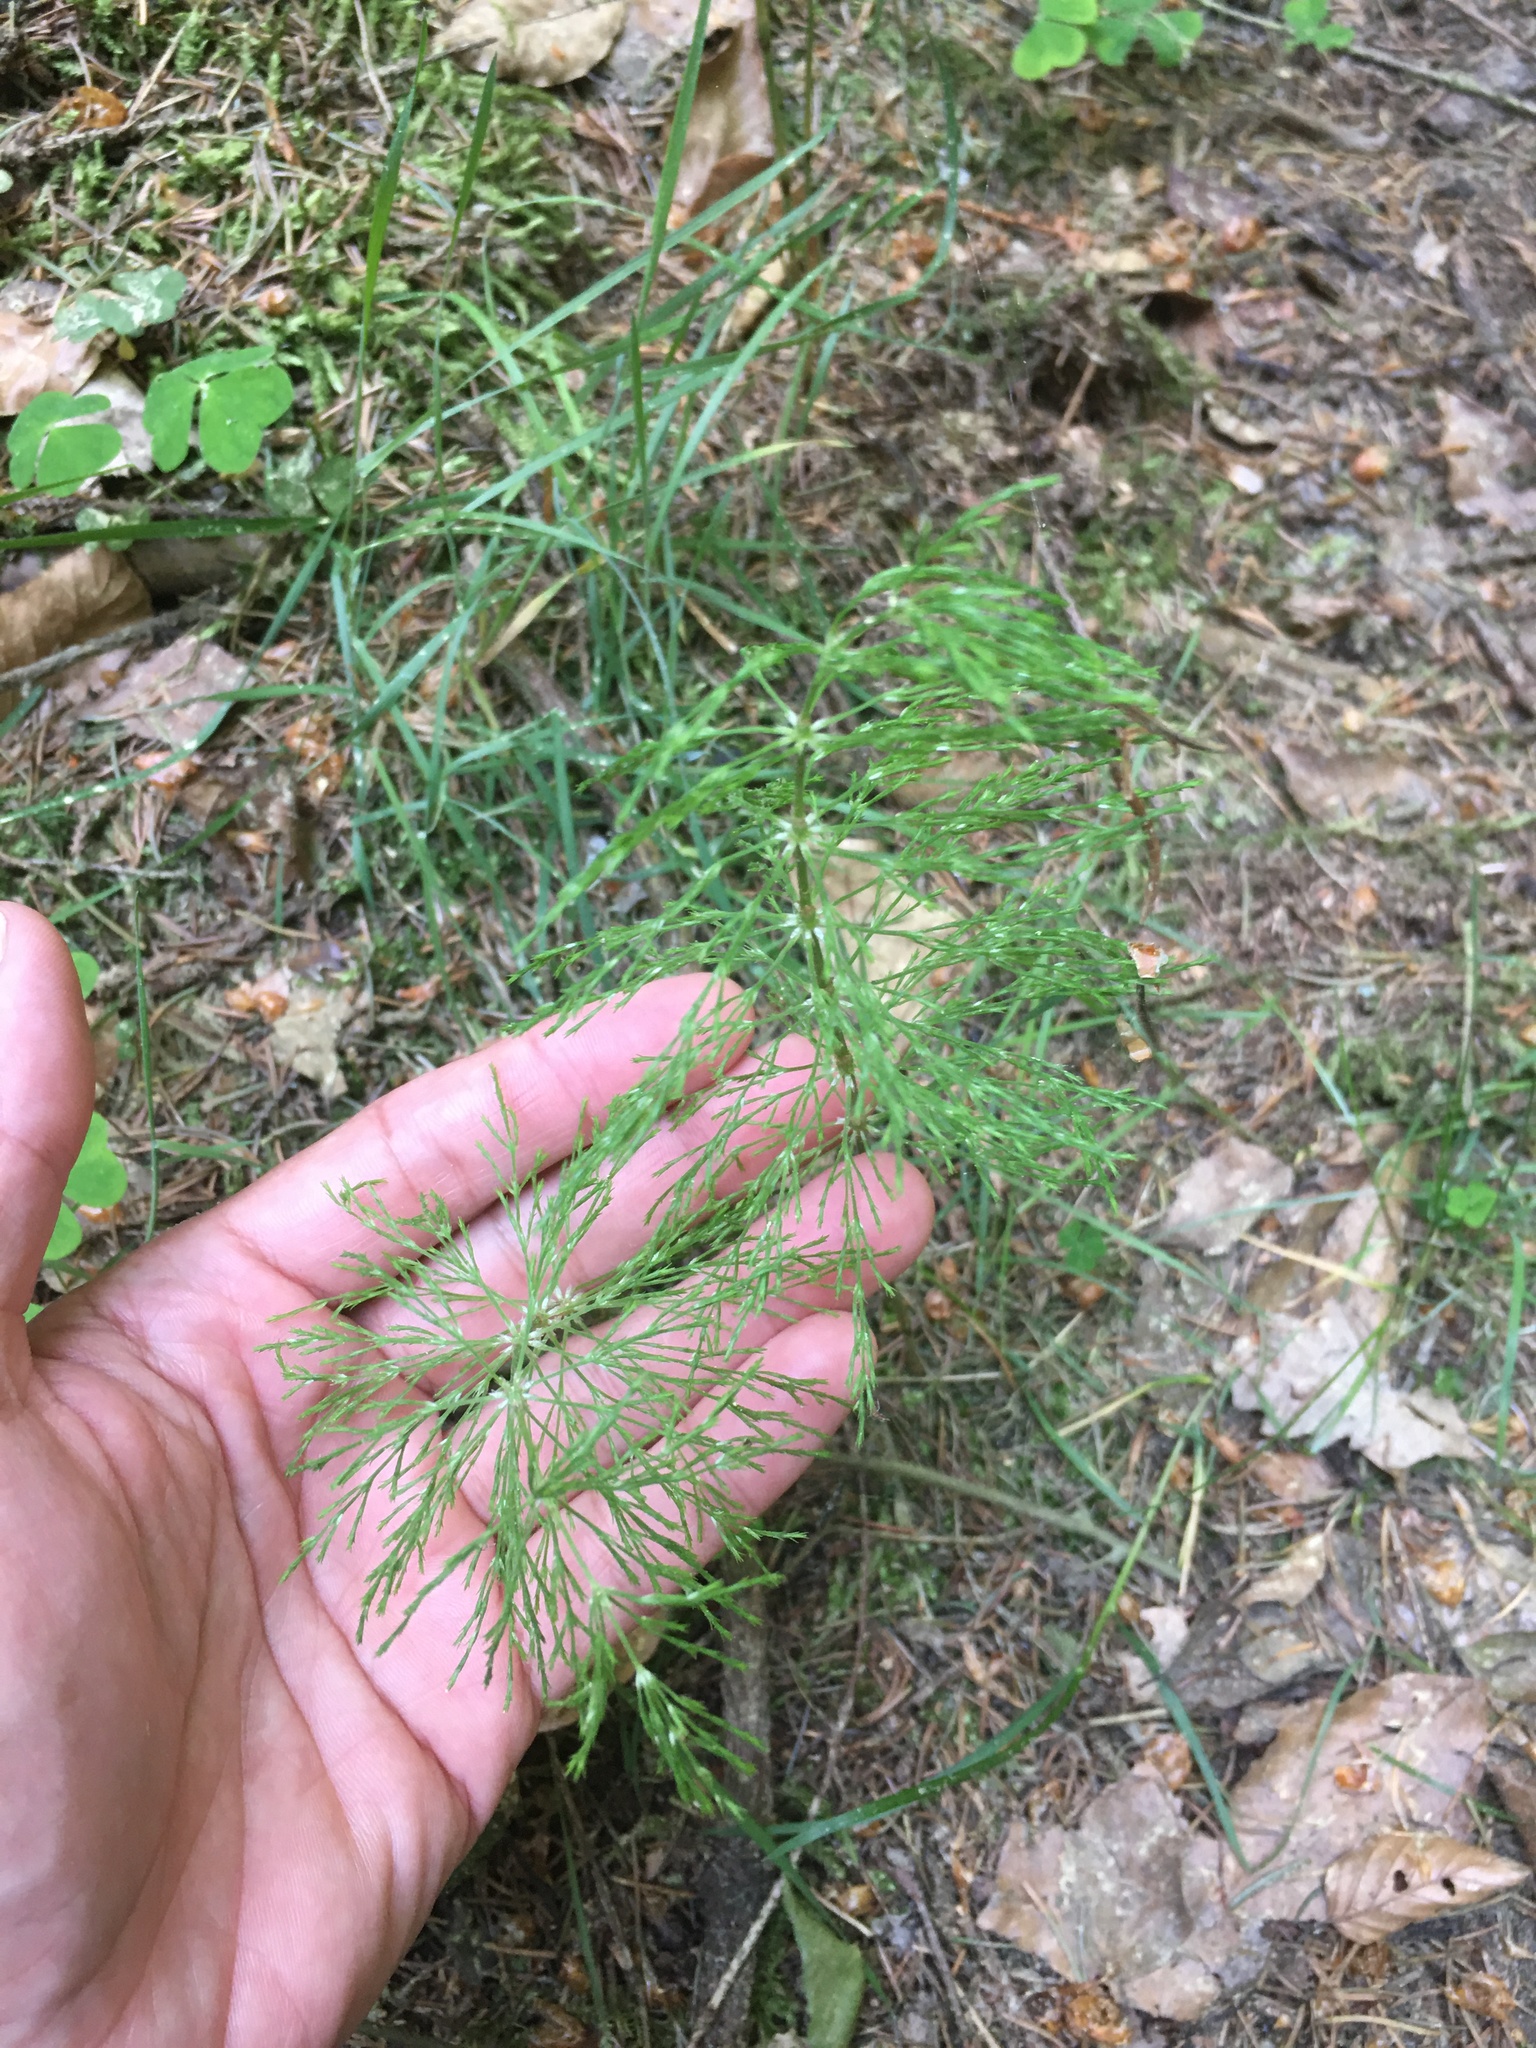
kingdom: Plantae
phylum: Tracheophyta
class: Polypodiopsida
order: Equisetales
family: Equisetaceae
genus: Equisetum
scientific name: Equisetum sylvaticum
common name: Wood horsetail
